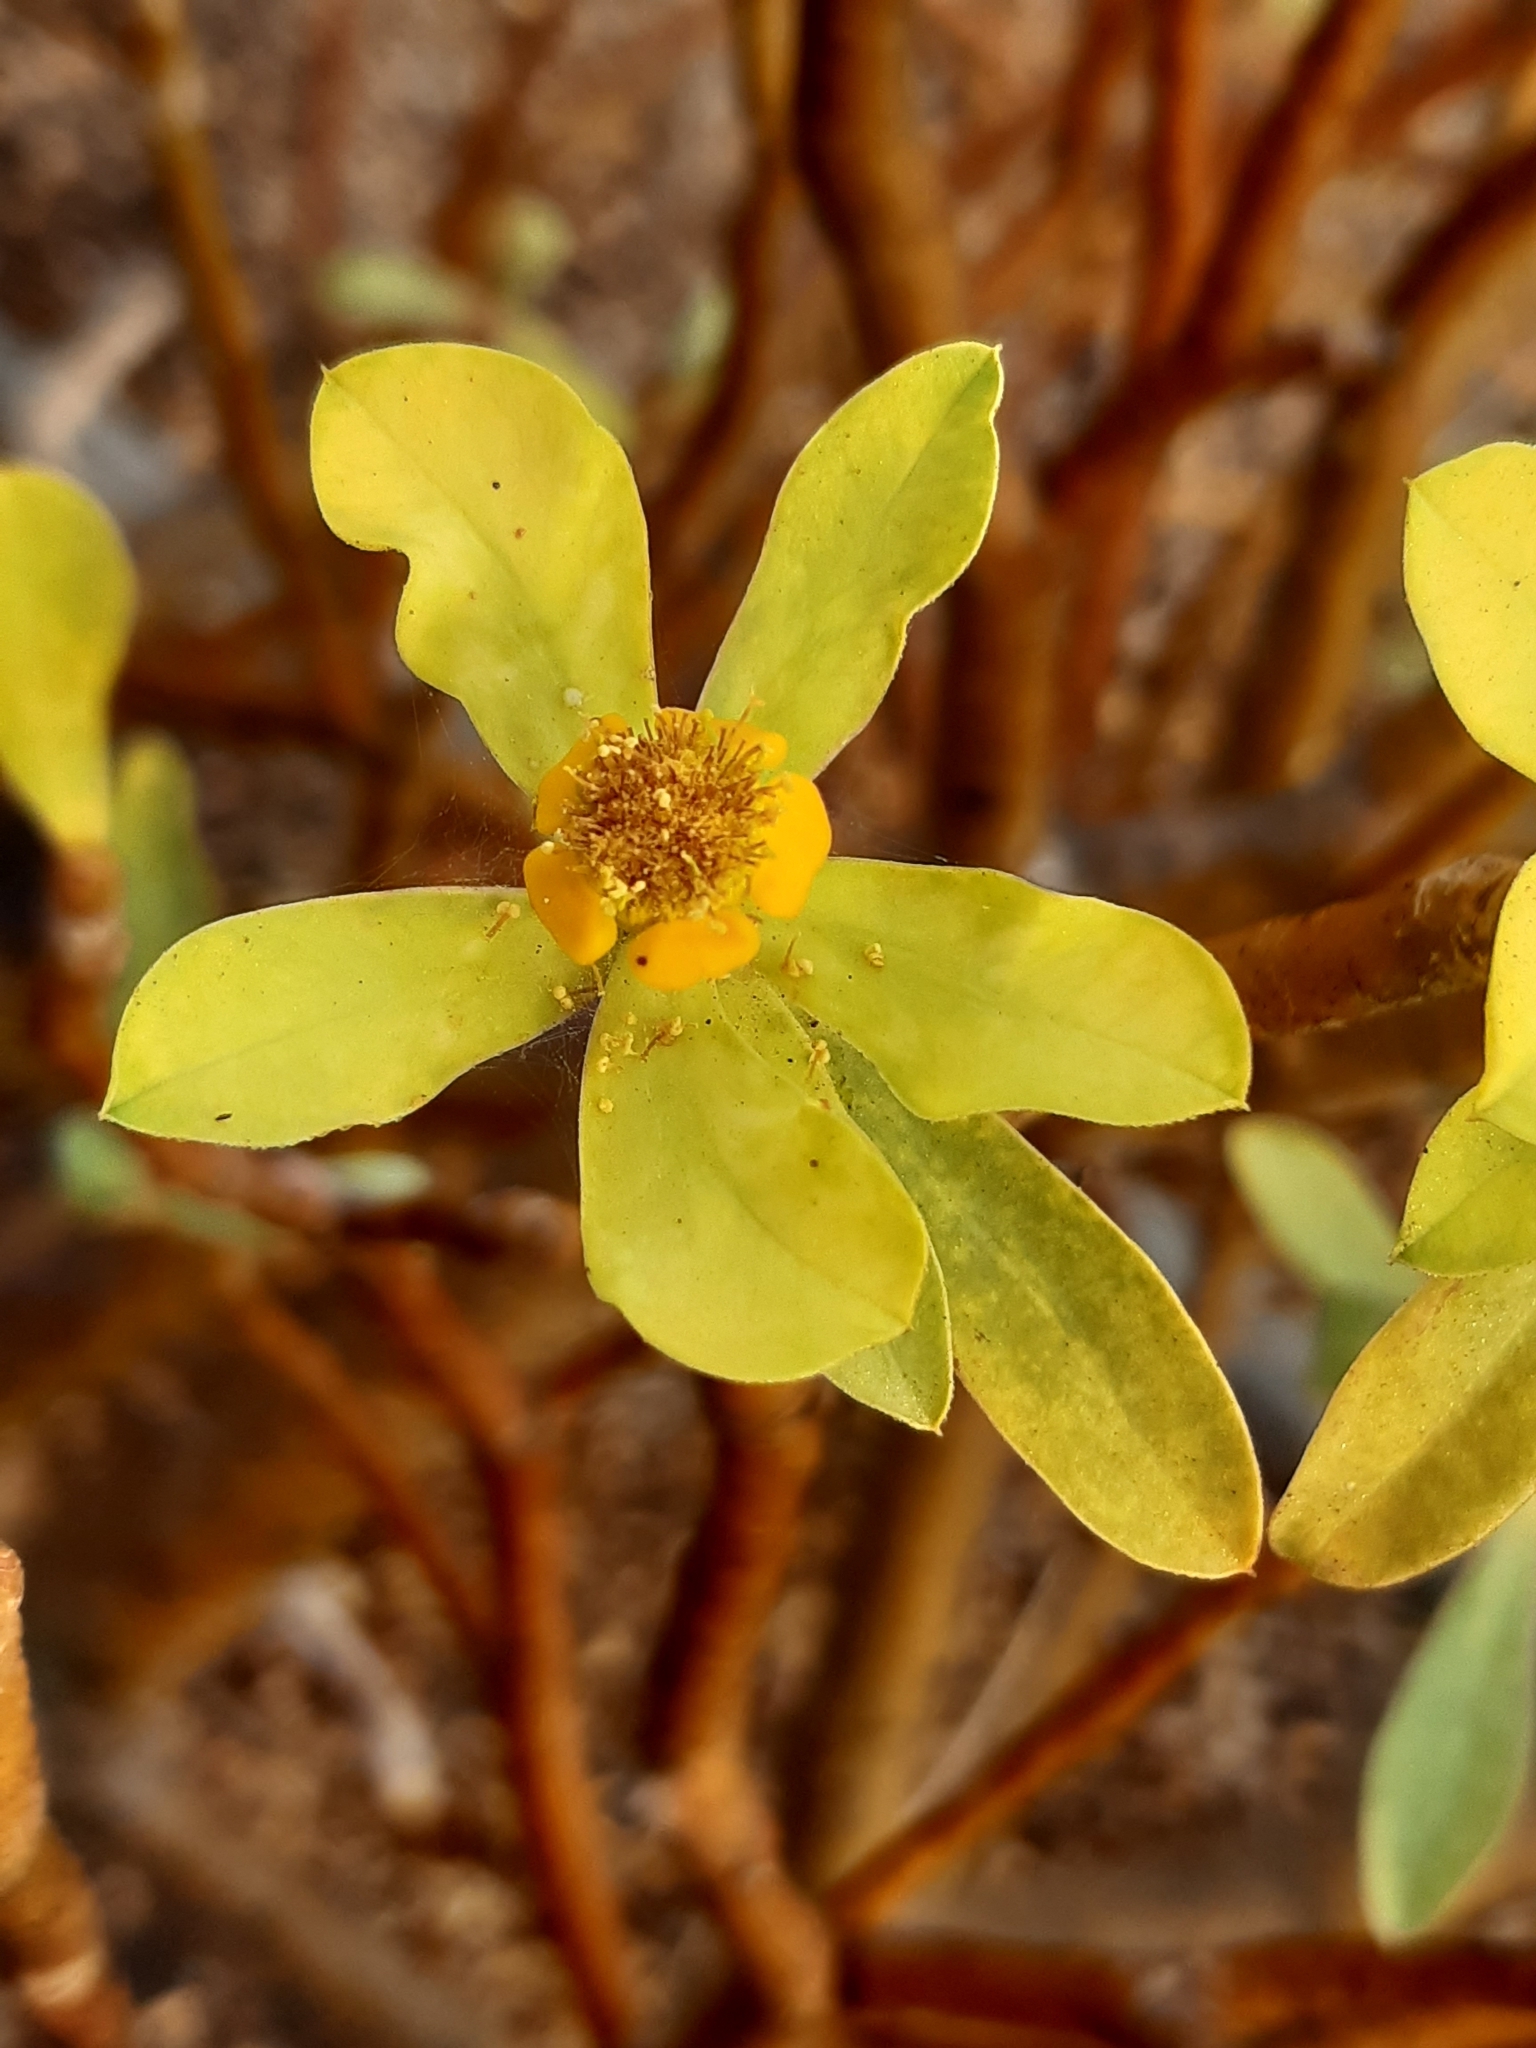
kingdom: Plantae
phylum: Tracheophyta
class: Magnoliopsida
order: Malpighiales
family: Euphorbiaceae
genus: Euphorbia
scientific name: Euphorbia balsamifera
